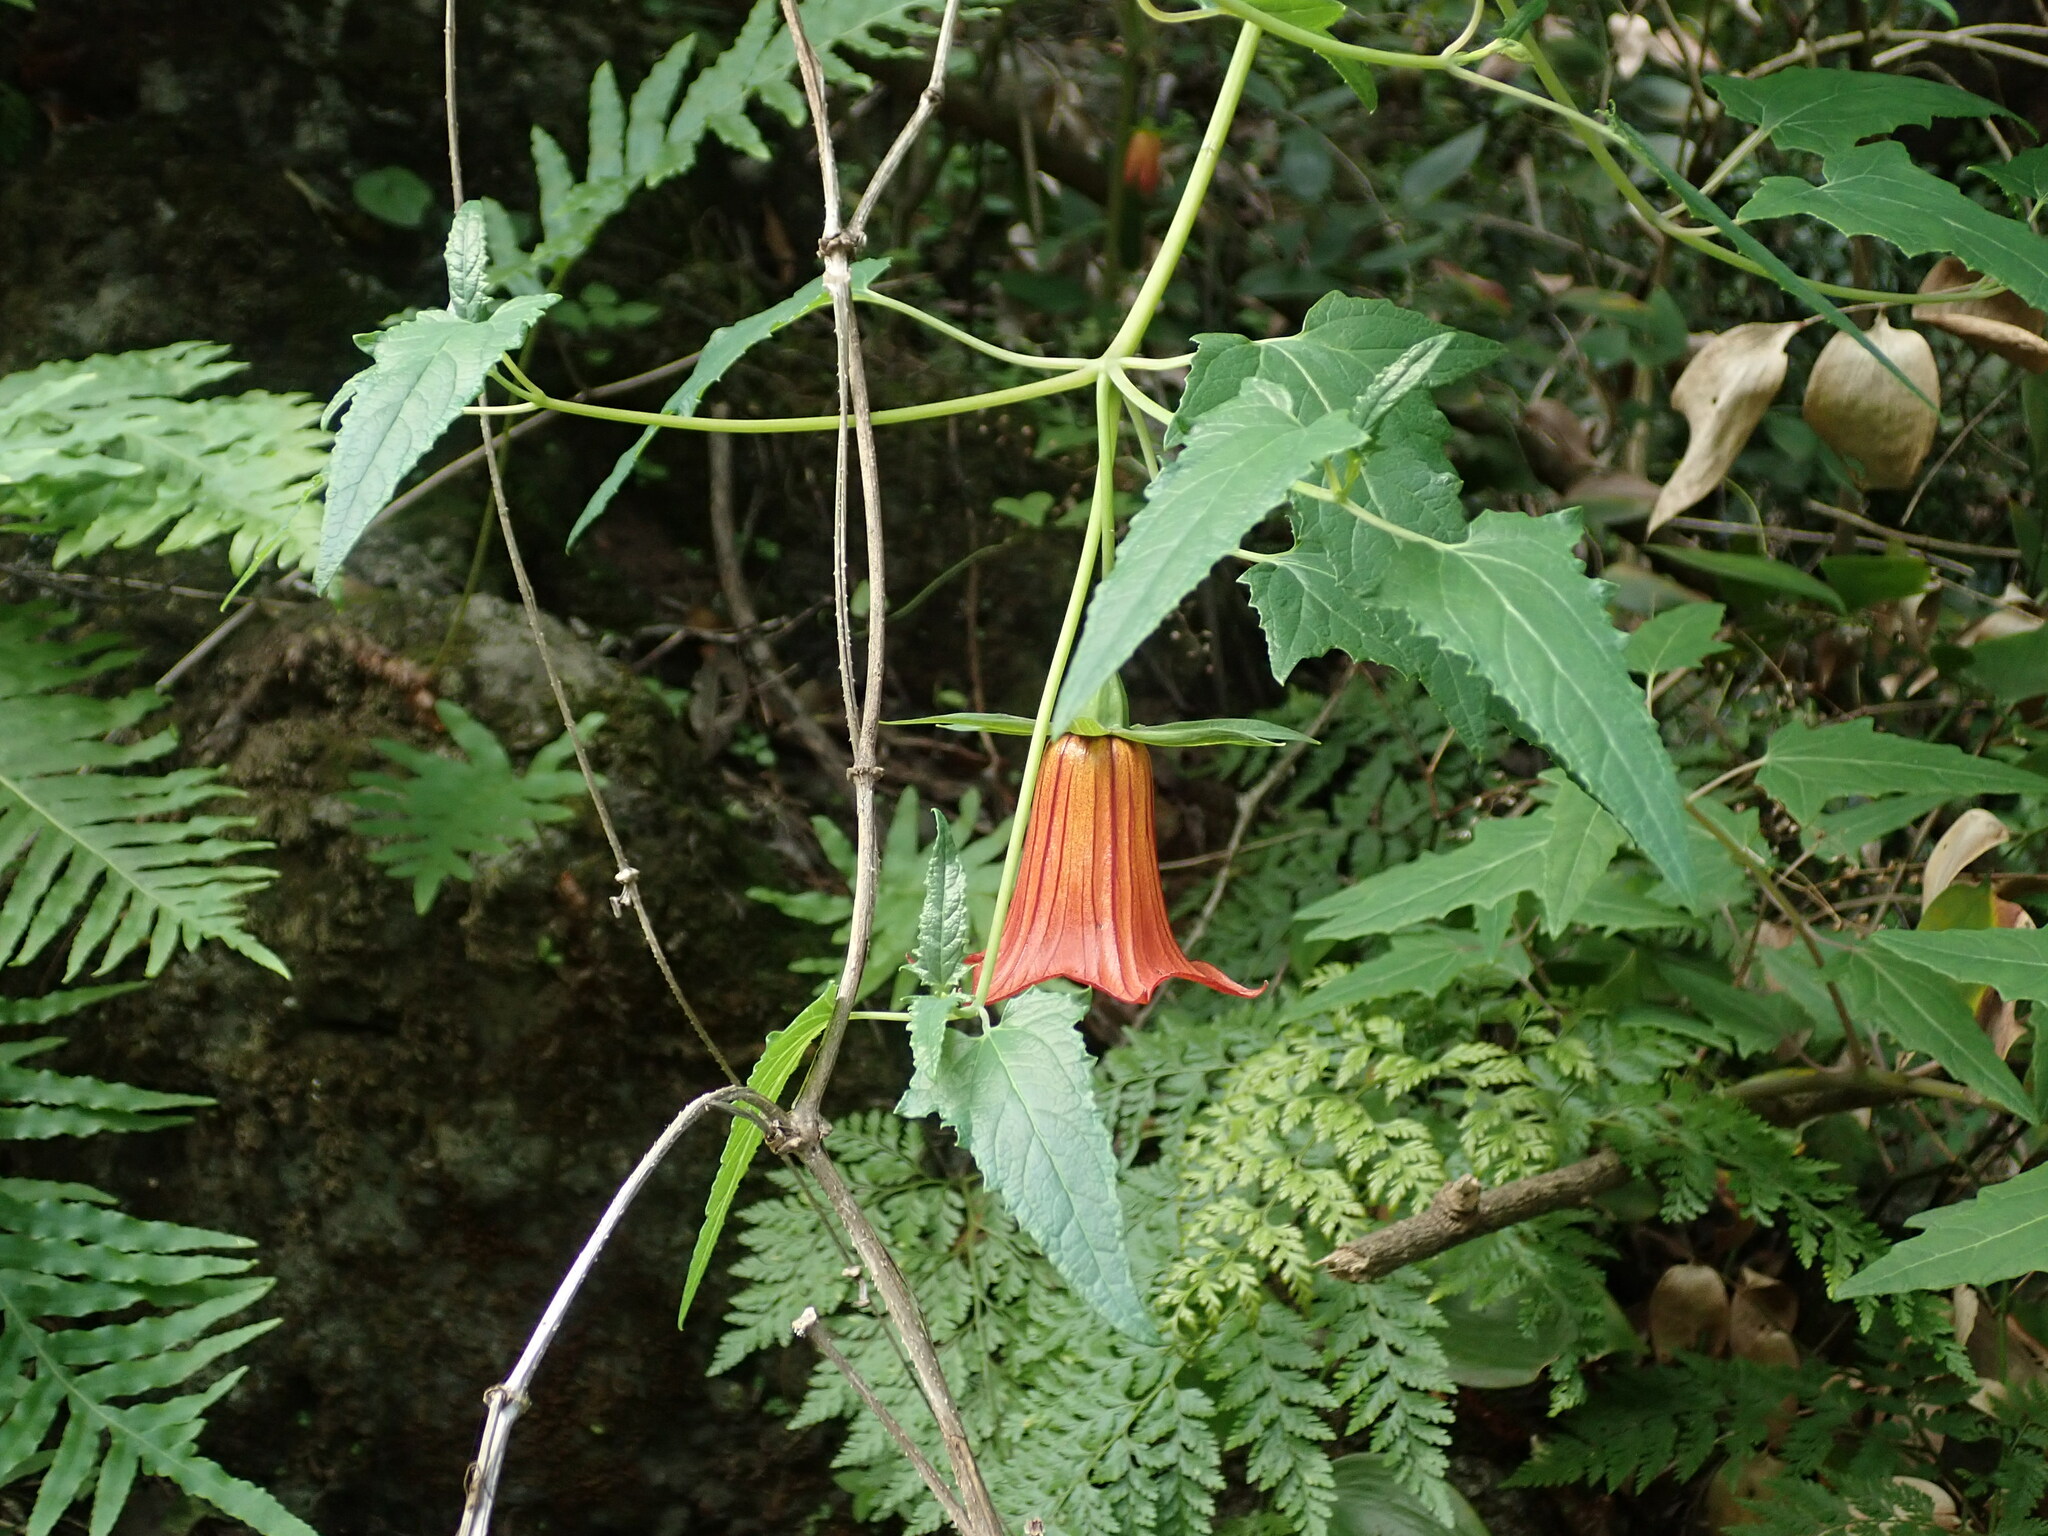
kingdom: Plantae
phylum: Tracheophyta
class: Magnoliopsida
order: Asterales
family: Campanulaceae
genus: Canarina
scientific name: Canarina canariensis
